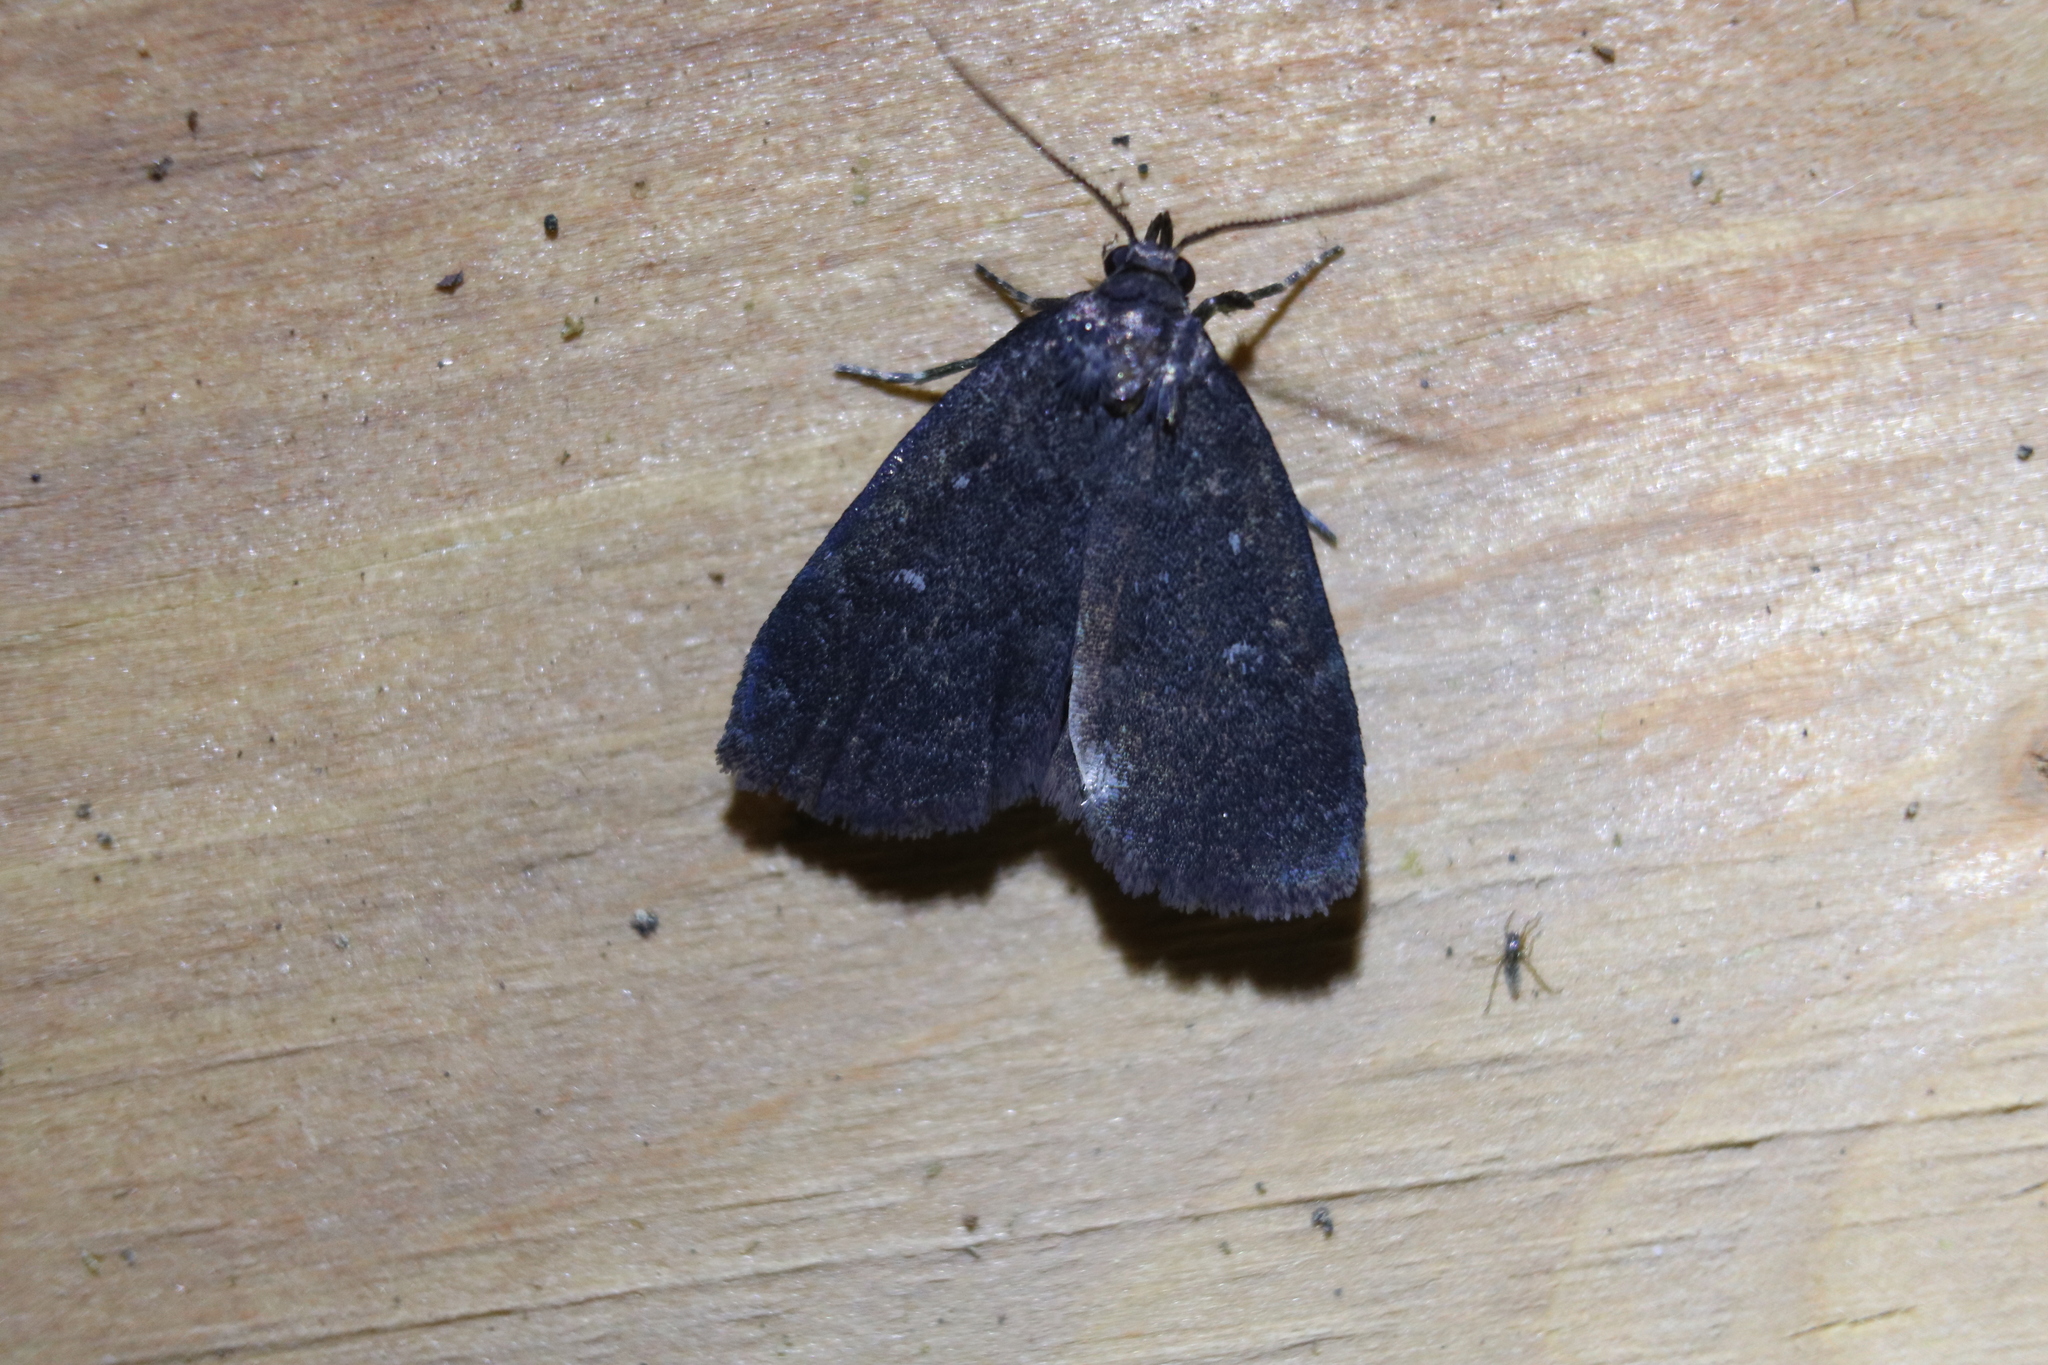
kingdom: Animalia
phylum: Arthropoda
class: Insecta
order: Lepidoptera
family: Erebidae
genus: Idia
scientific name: Idia rotundalis
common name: Rotund idia moth
